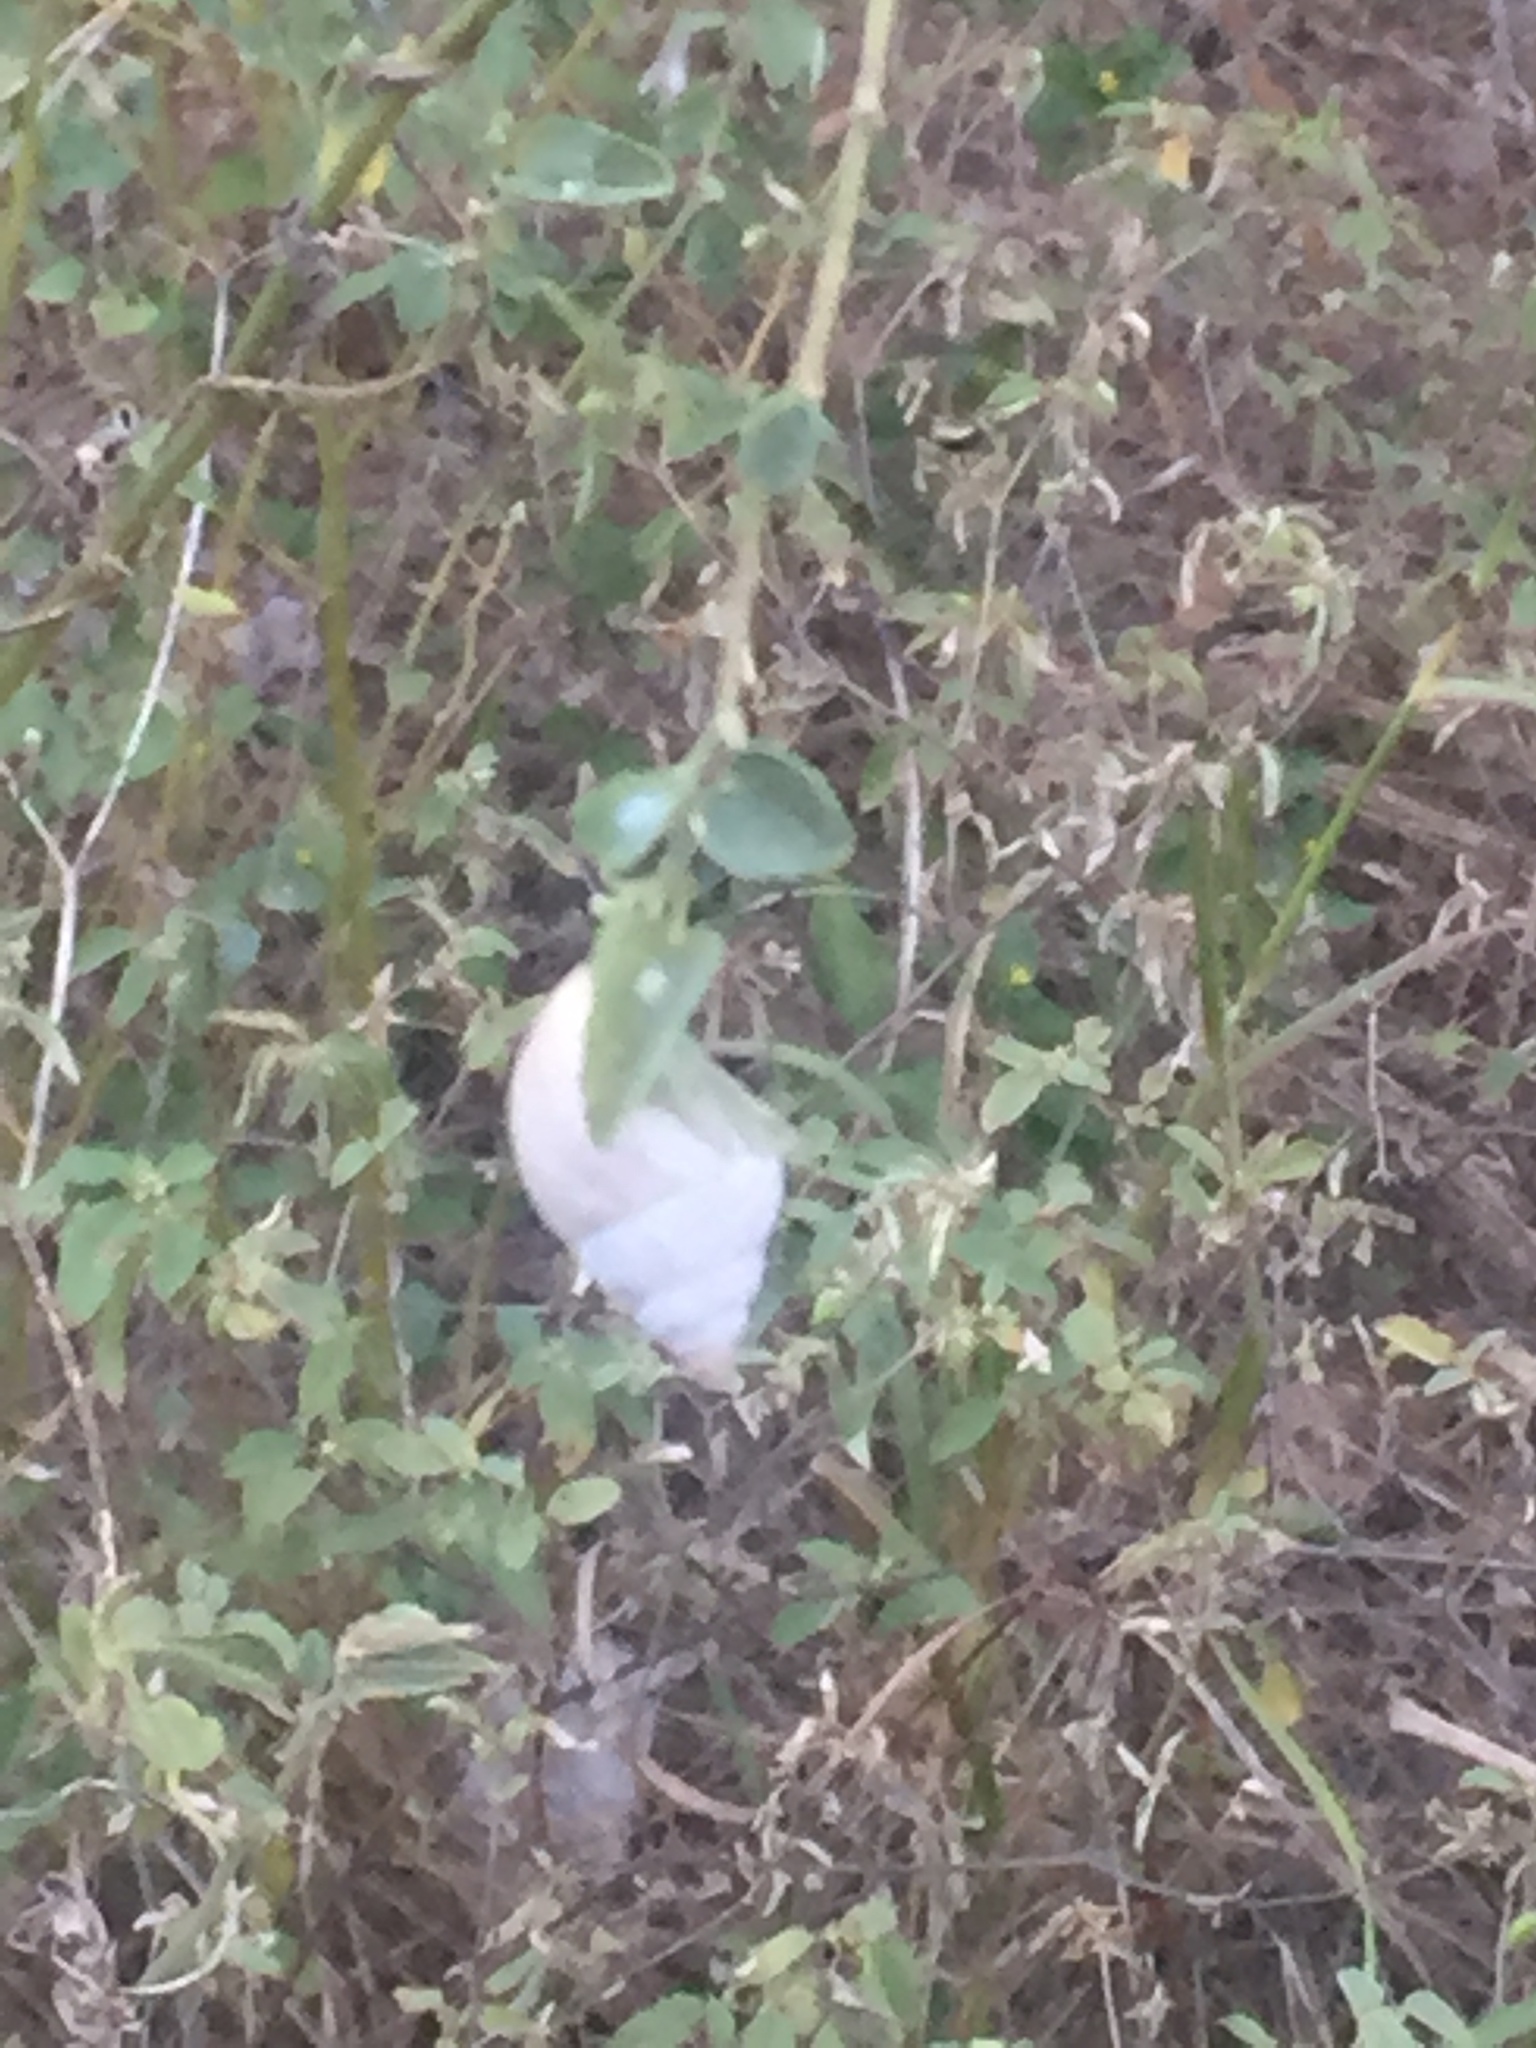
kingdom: Animalia
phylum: Mollusca
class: Gastropoda
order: Stylommatophora
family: Bulimulidae
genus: Rabdotus
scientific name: Rabdotus mooreanus
